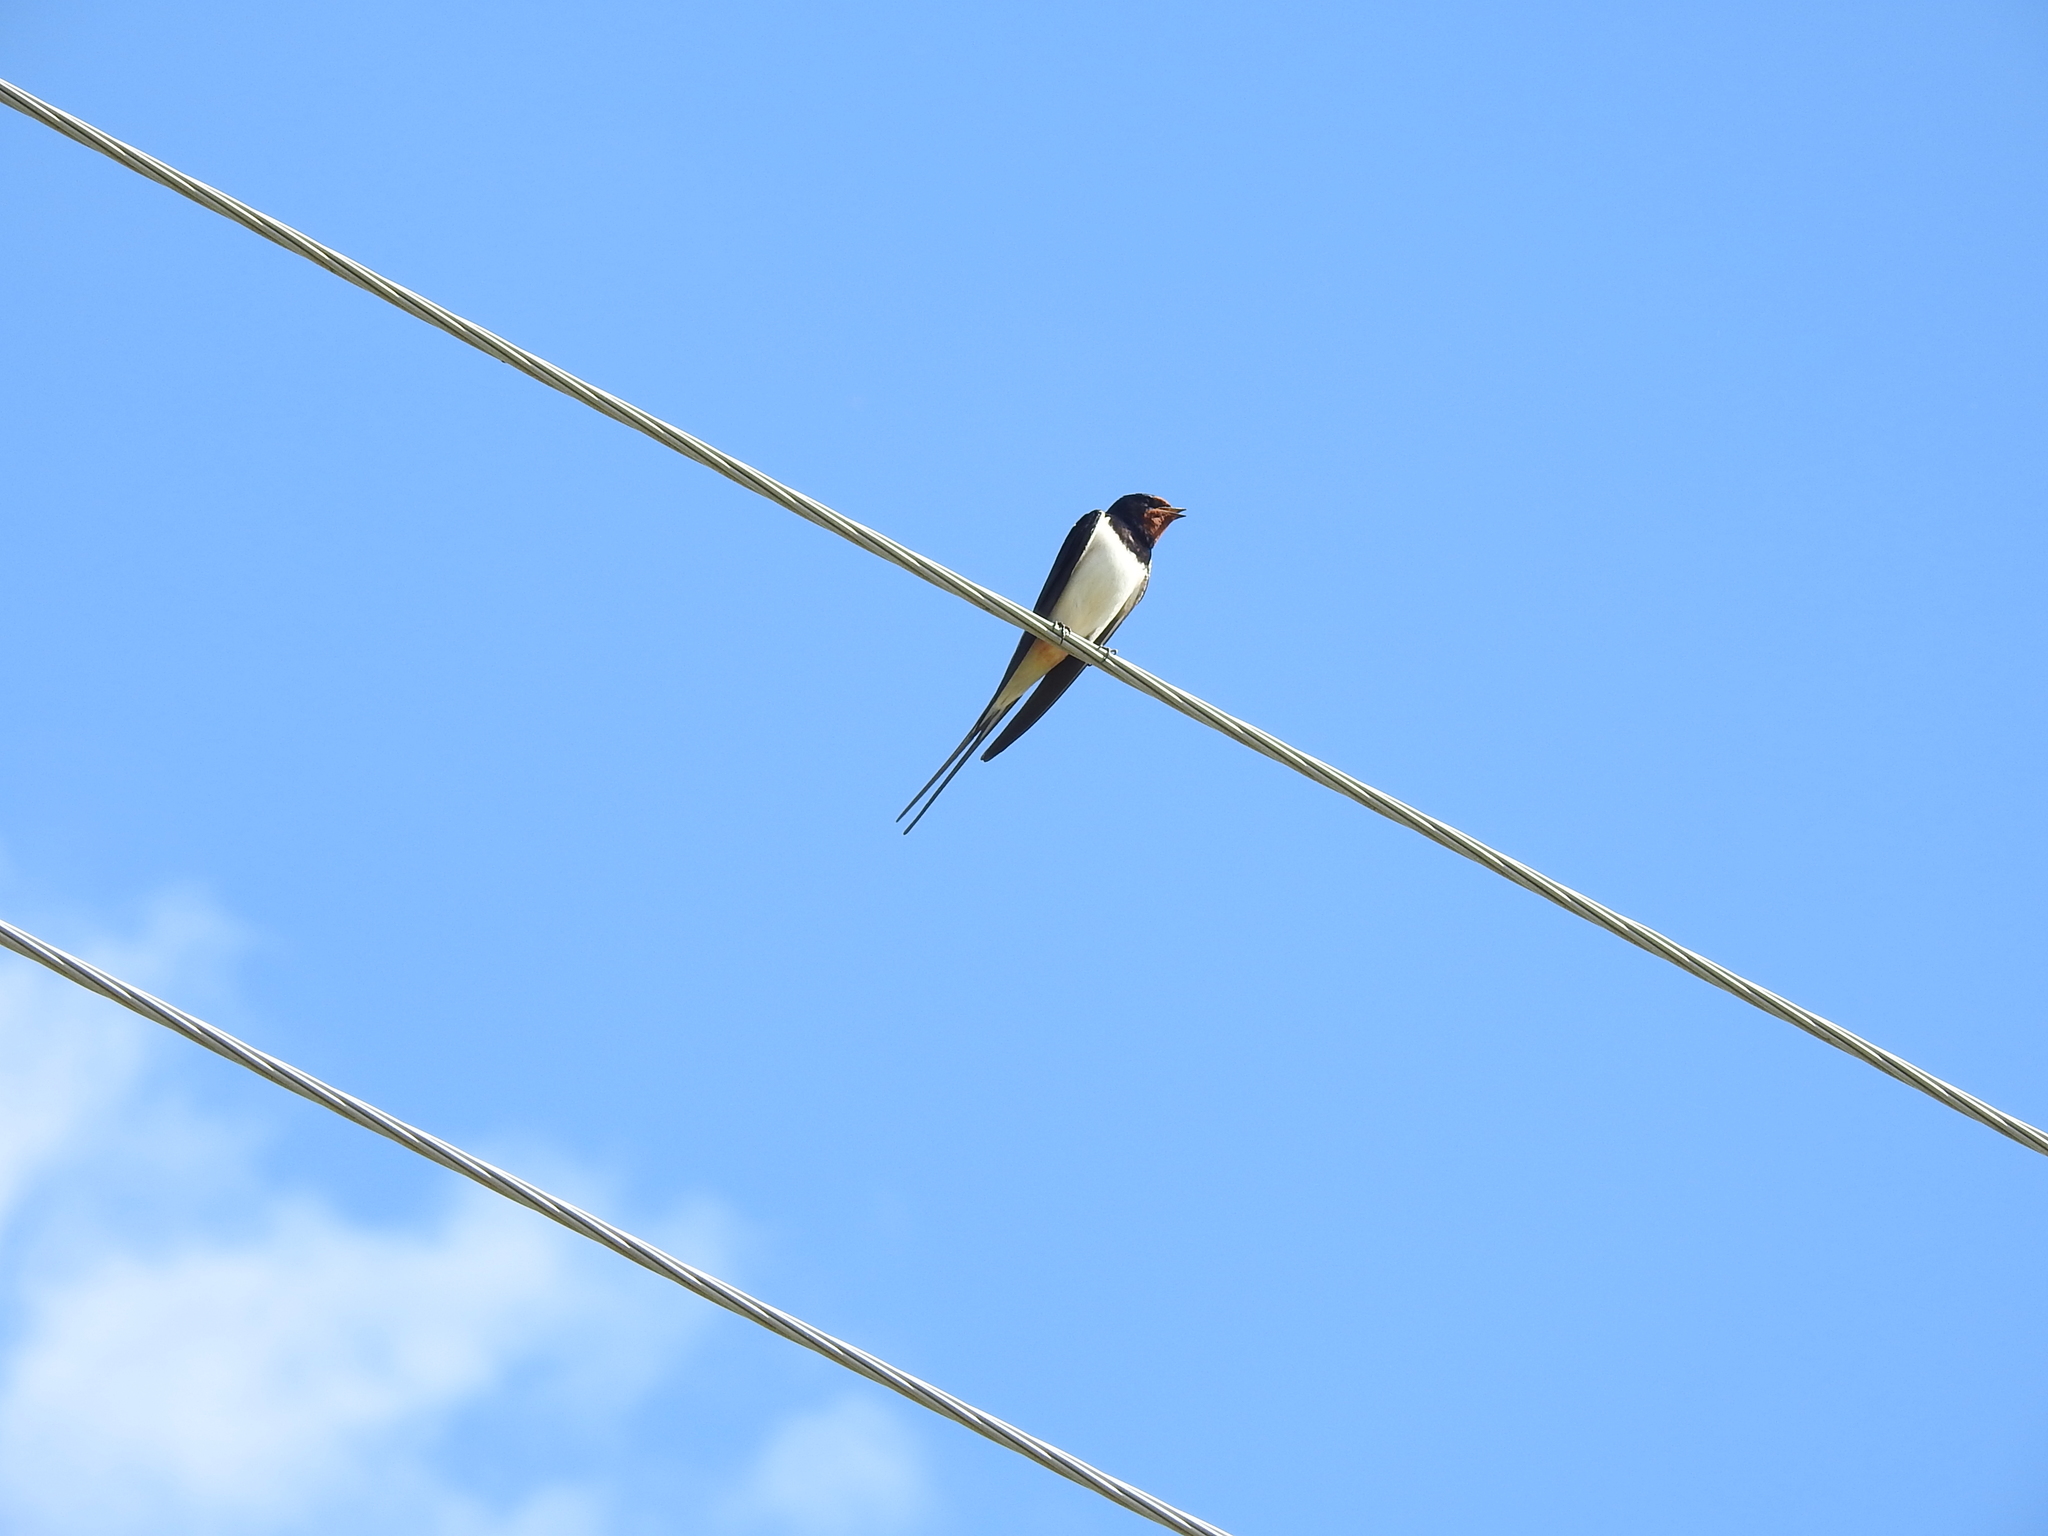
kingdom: Animalia
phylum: Chordata
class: Aves
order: Passeriformes
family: Hirundinidae
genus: Hirundo
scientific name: Hirundo rustica
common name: Barn swallow
